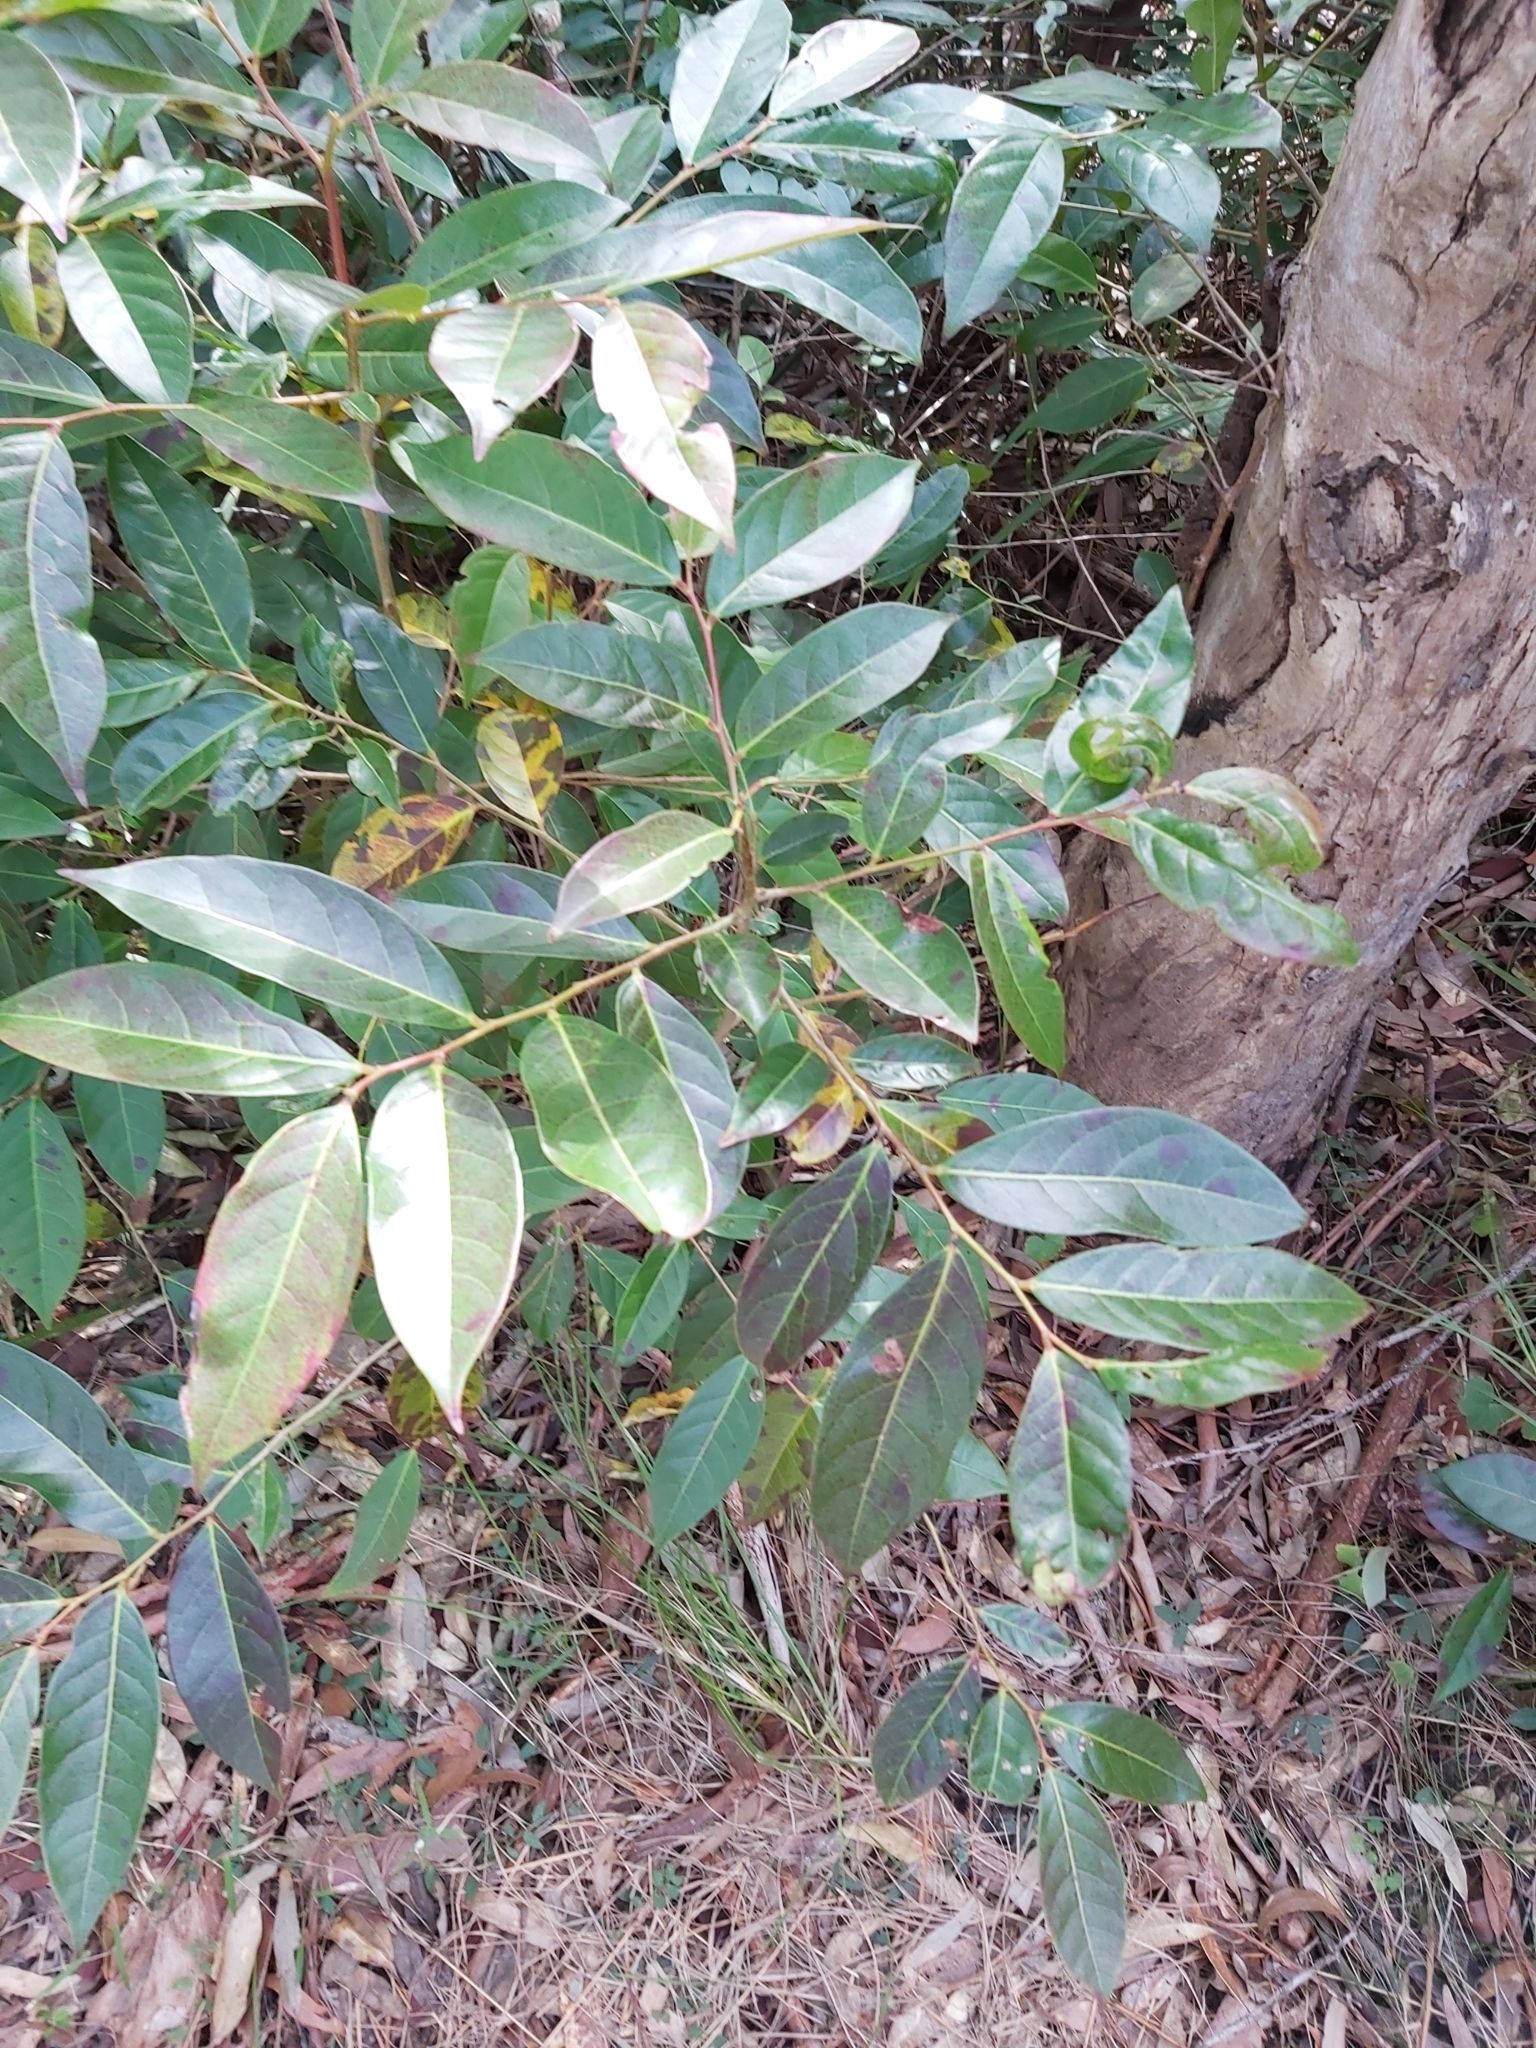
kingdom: Plantae
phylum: Tracheophyta
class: Magnoliopsida
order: Malpighiales
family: Phyllanthaceae
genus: Glochidion
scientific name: Glochidion ferdinandi
